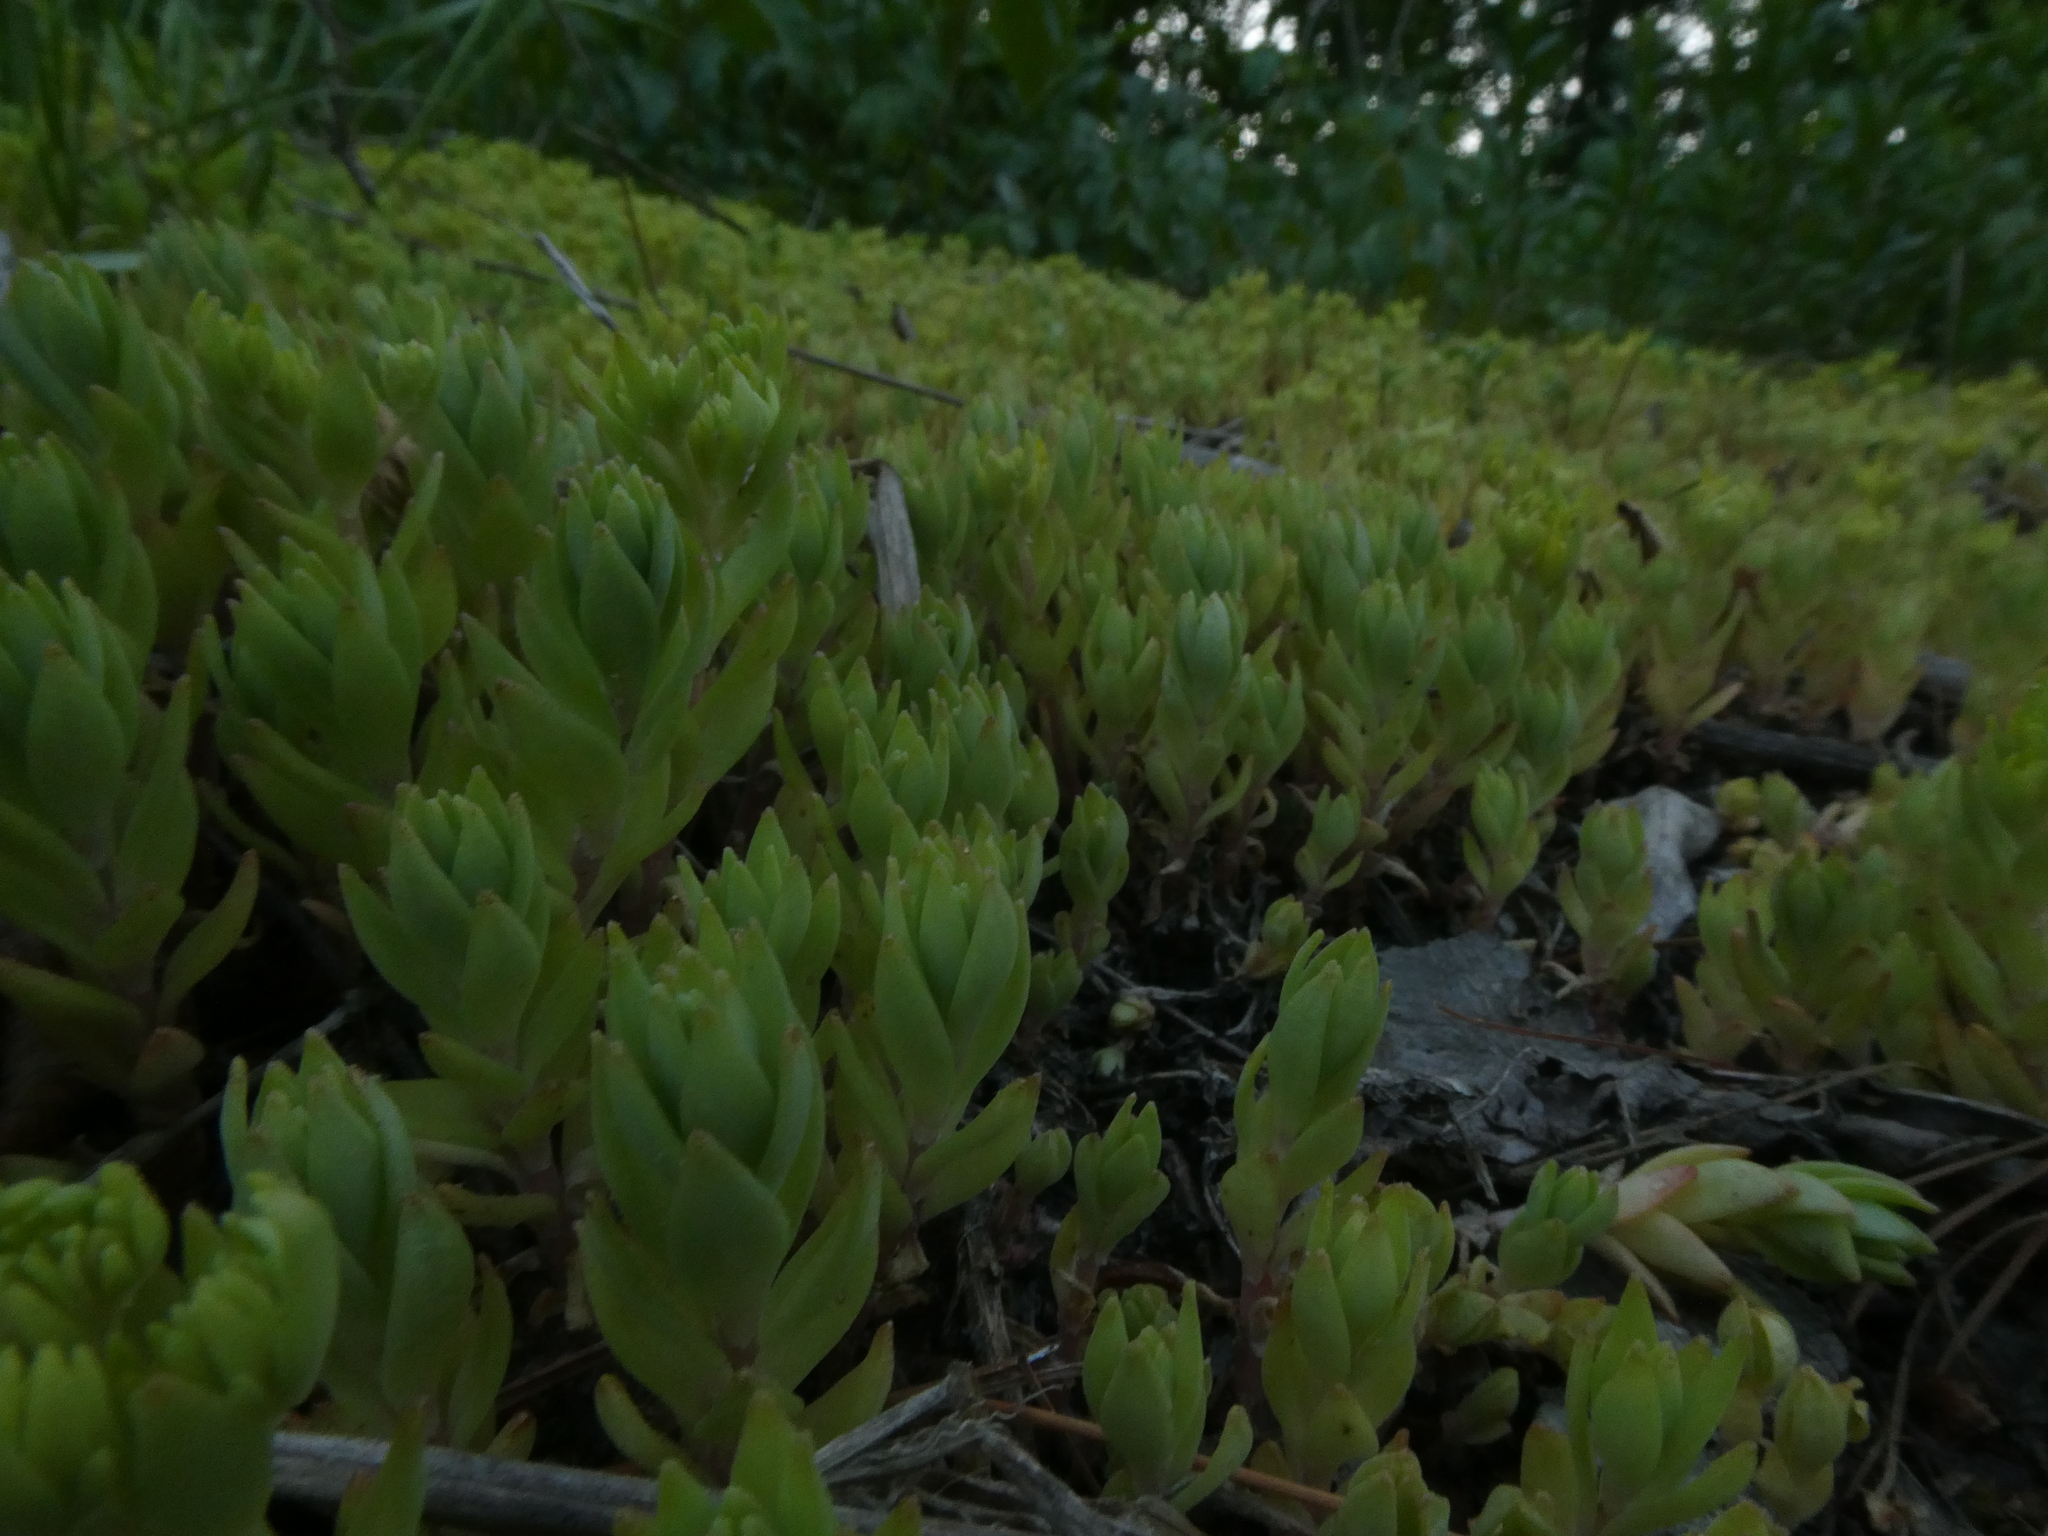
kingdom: Plantae
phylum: Tracheophyta
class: Magnoliopsida
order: Saxifragales
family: Crassulaceae
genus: Sedum
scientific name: Sedum sarmentosum
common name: Stringy stonecrop
